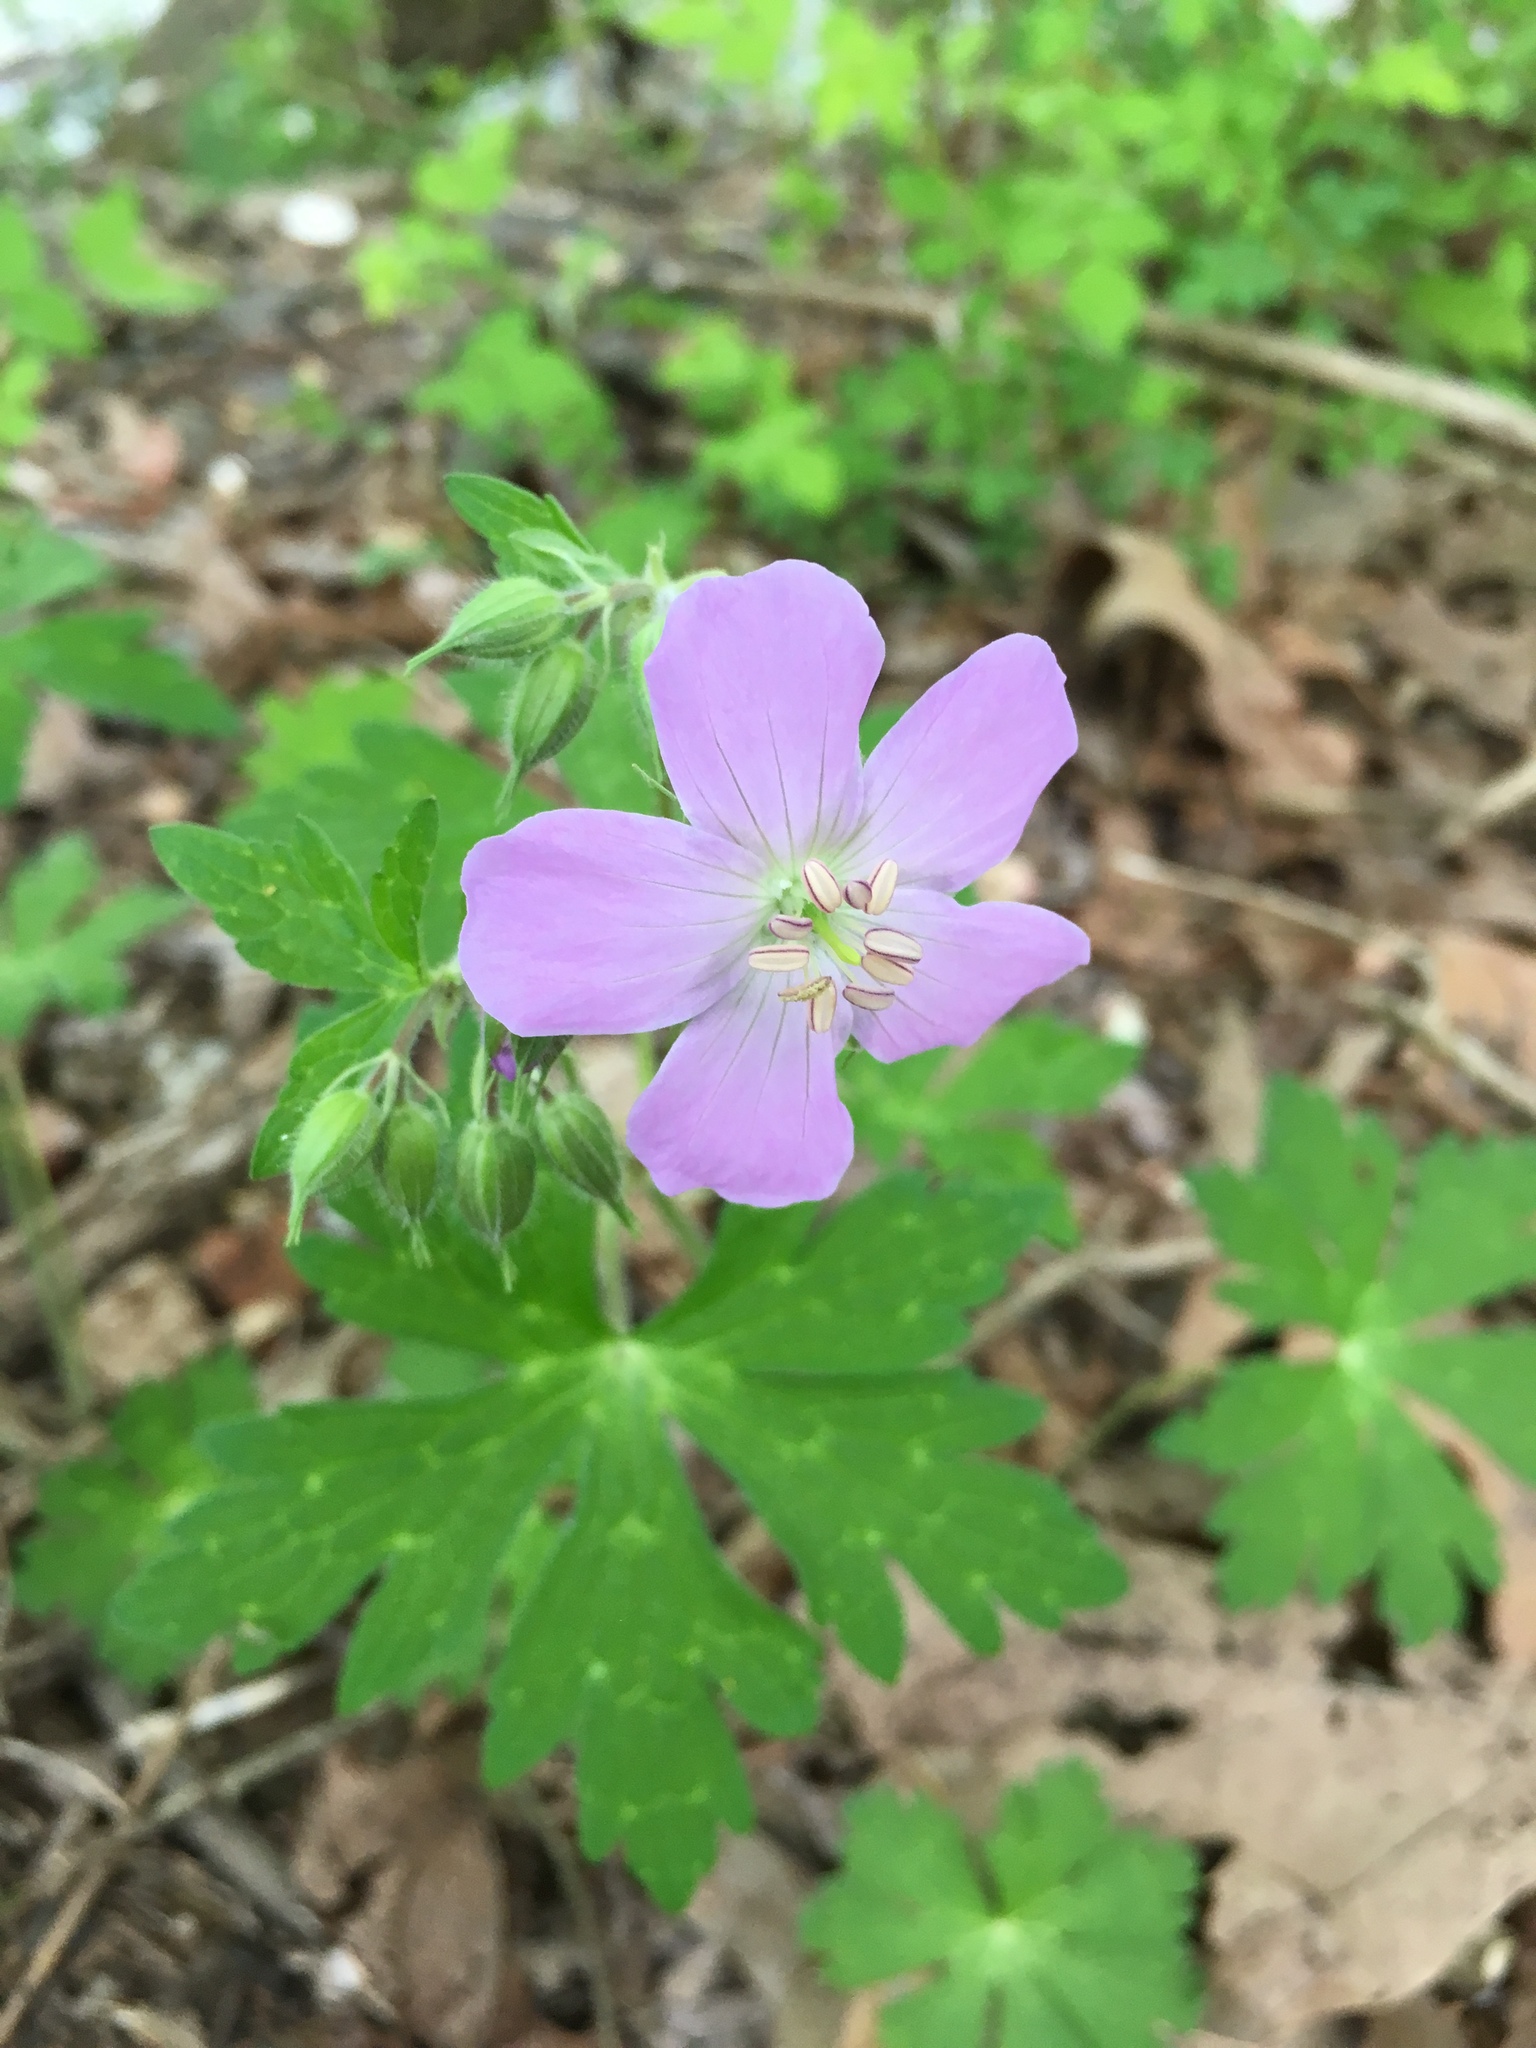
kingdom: Plantae
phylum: Tracheophyta
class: Magnoliopsida
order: Geraniales
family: Geraniaceae
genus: Geranium
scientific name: Geranium maculatum
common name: Spotted geranium
